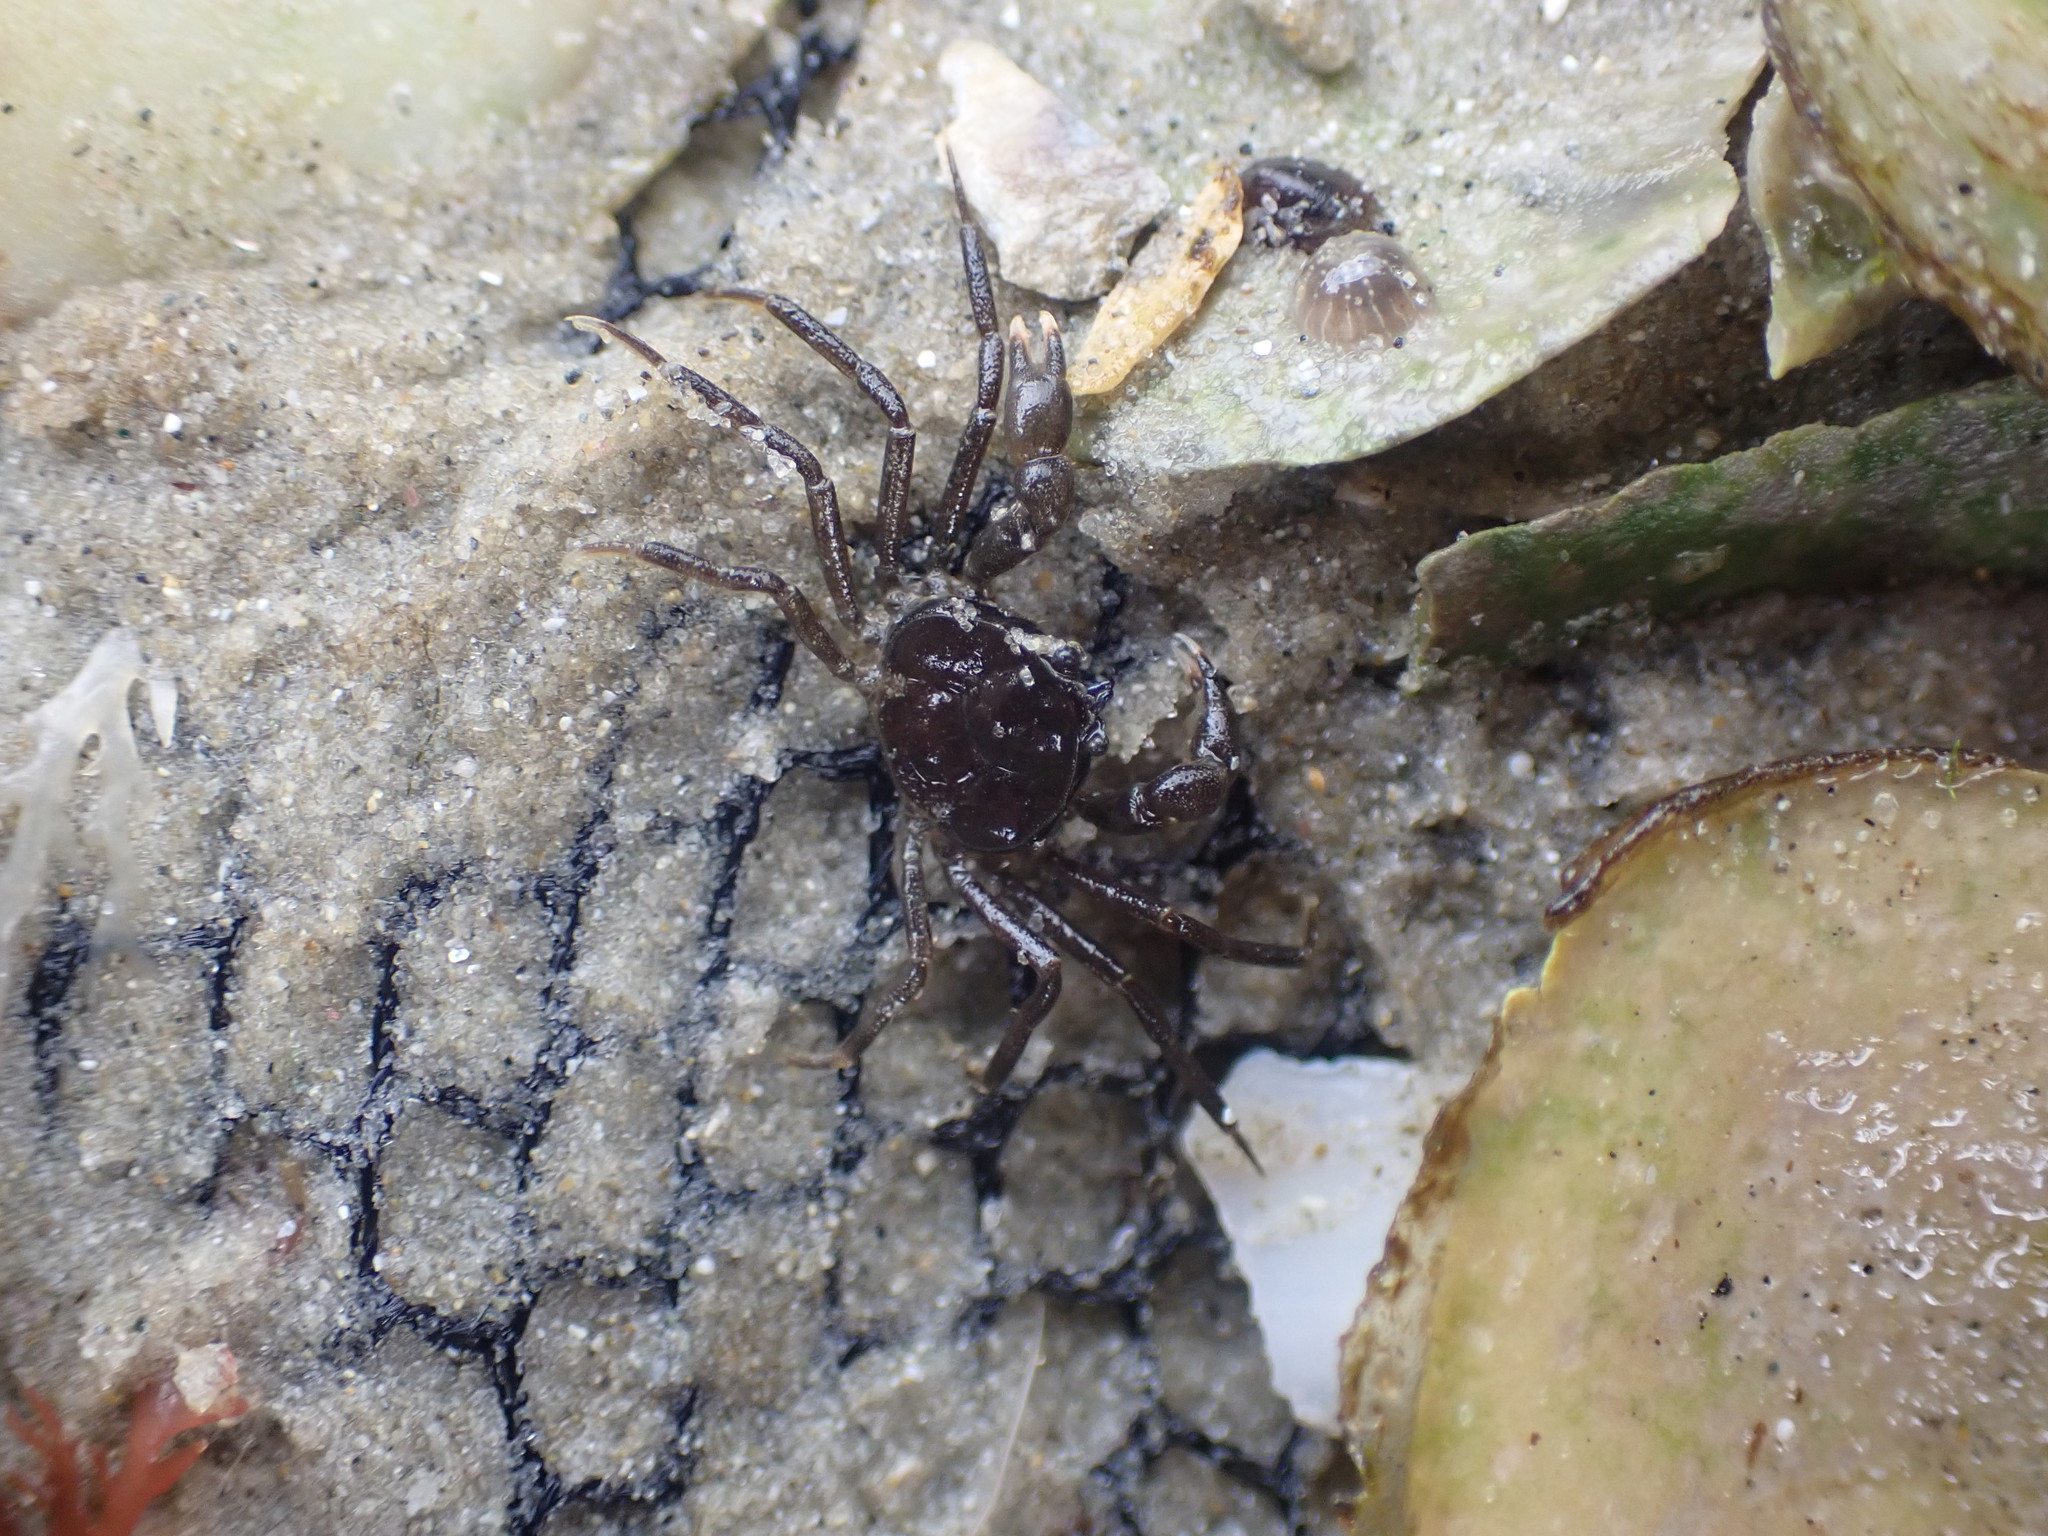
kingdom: Animalia
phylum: Arthropoda
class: Malacostraca
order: Decapoda
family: Hymenosomatidae
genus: Halicarcinus
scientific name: Halicarcinus varius
